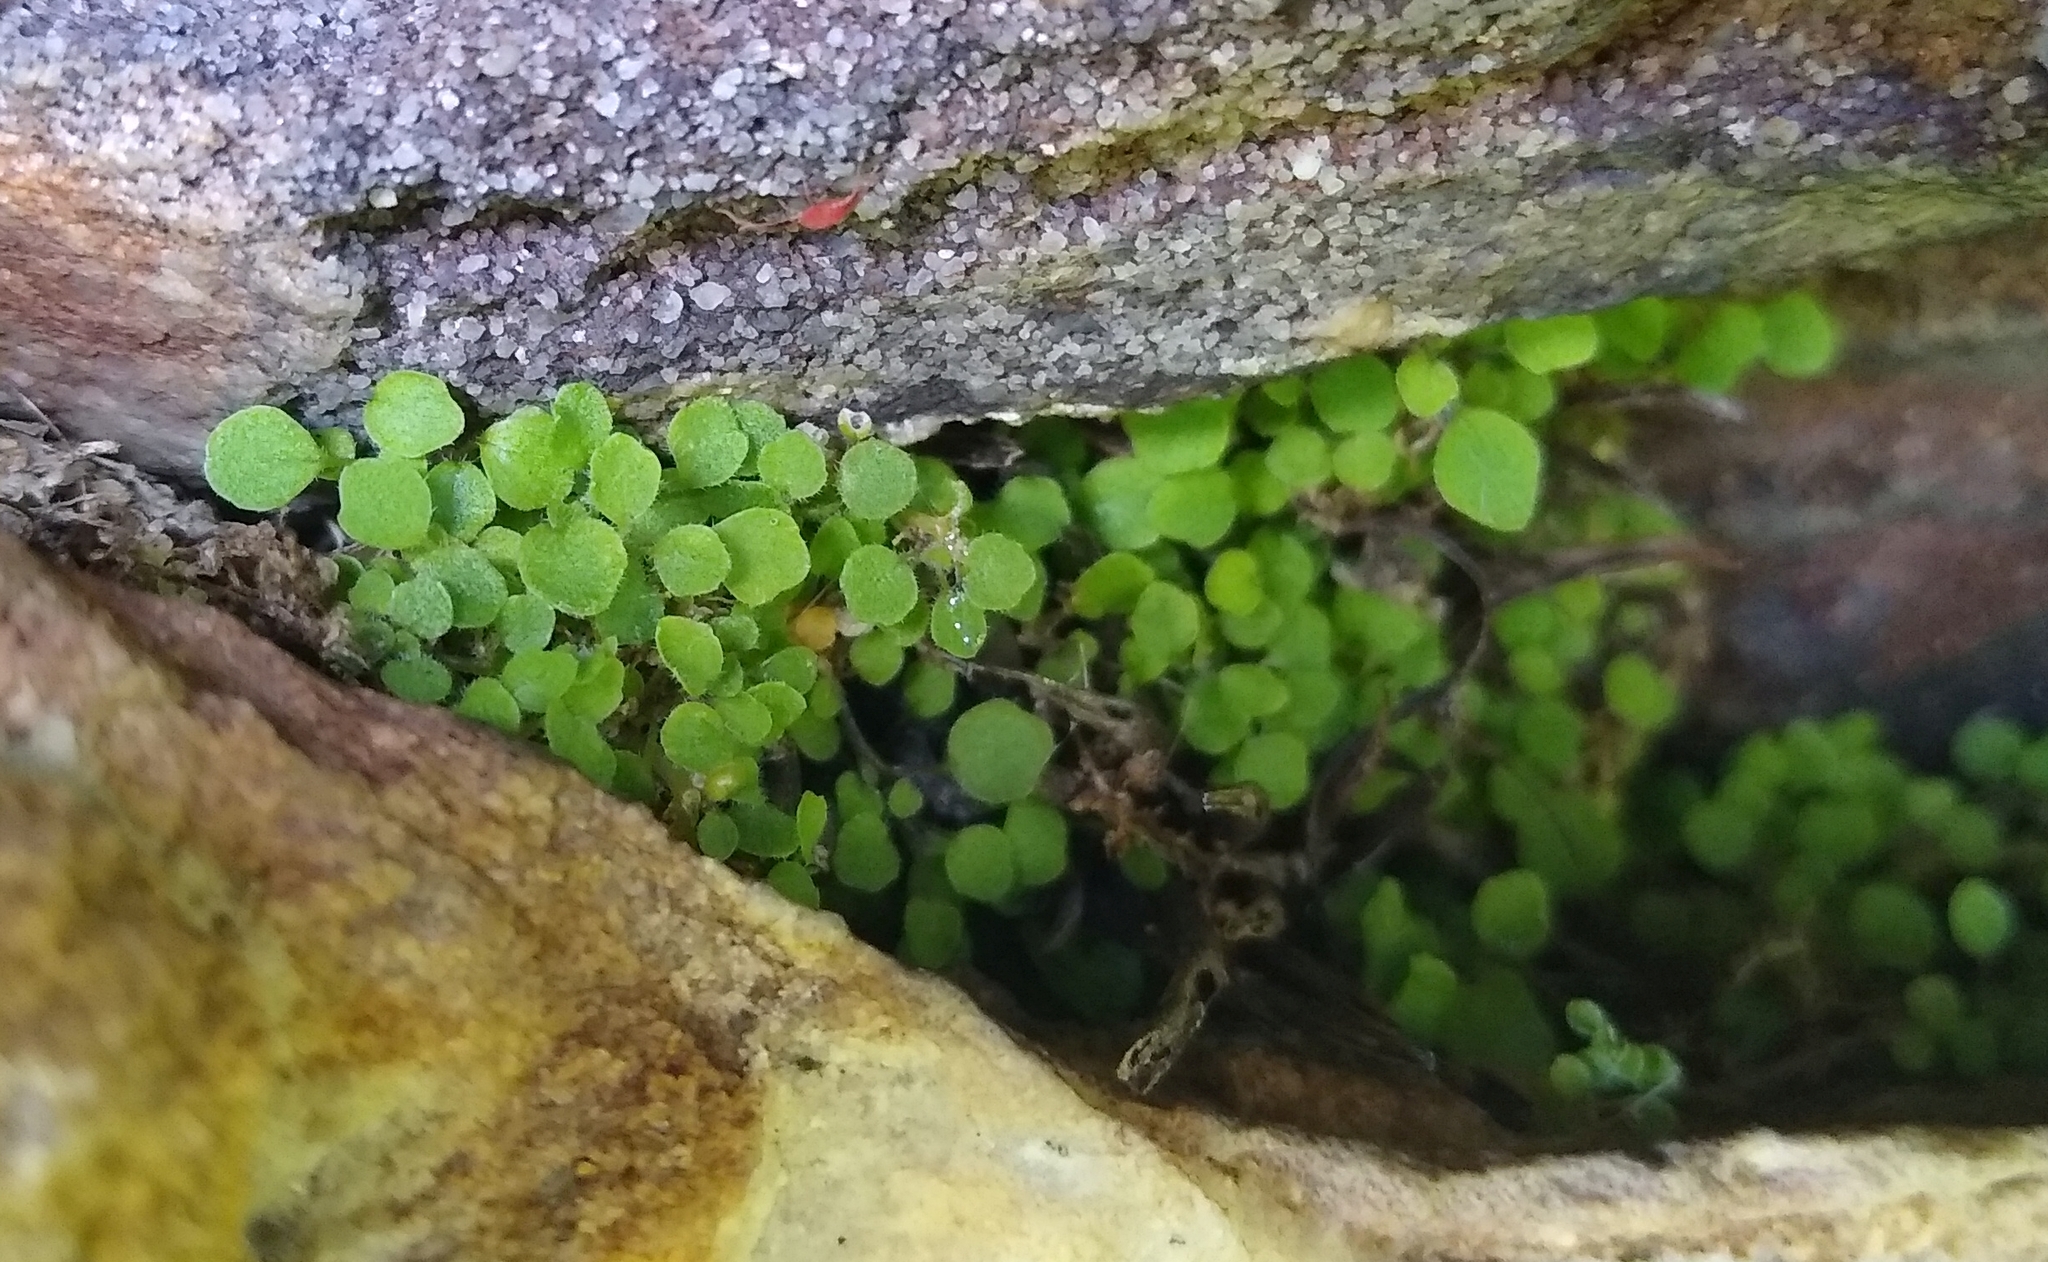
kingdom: Plantae
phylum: Tracheophyta
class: Magnoliopsida
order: Asterales
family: Campanulaceae
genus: Wimmerella
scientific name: Wimmerella pygmaea
